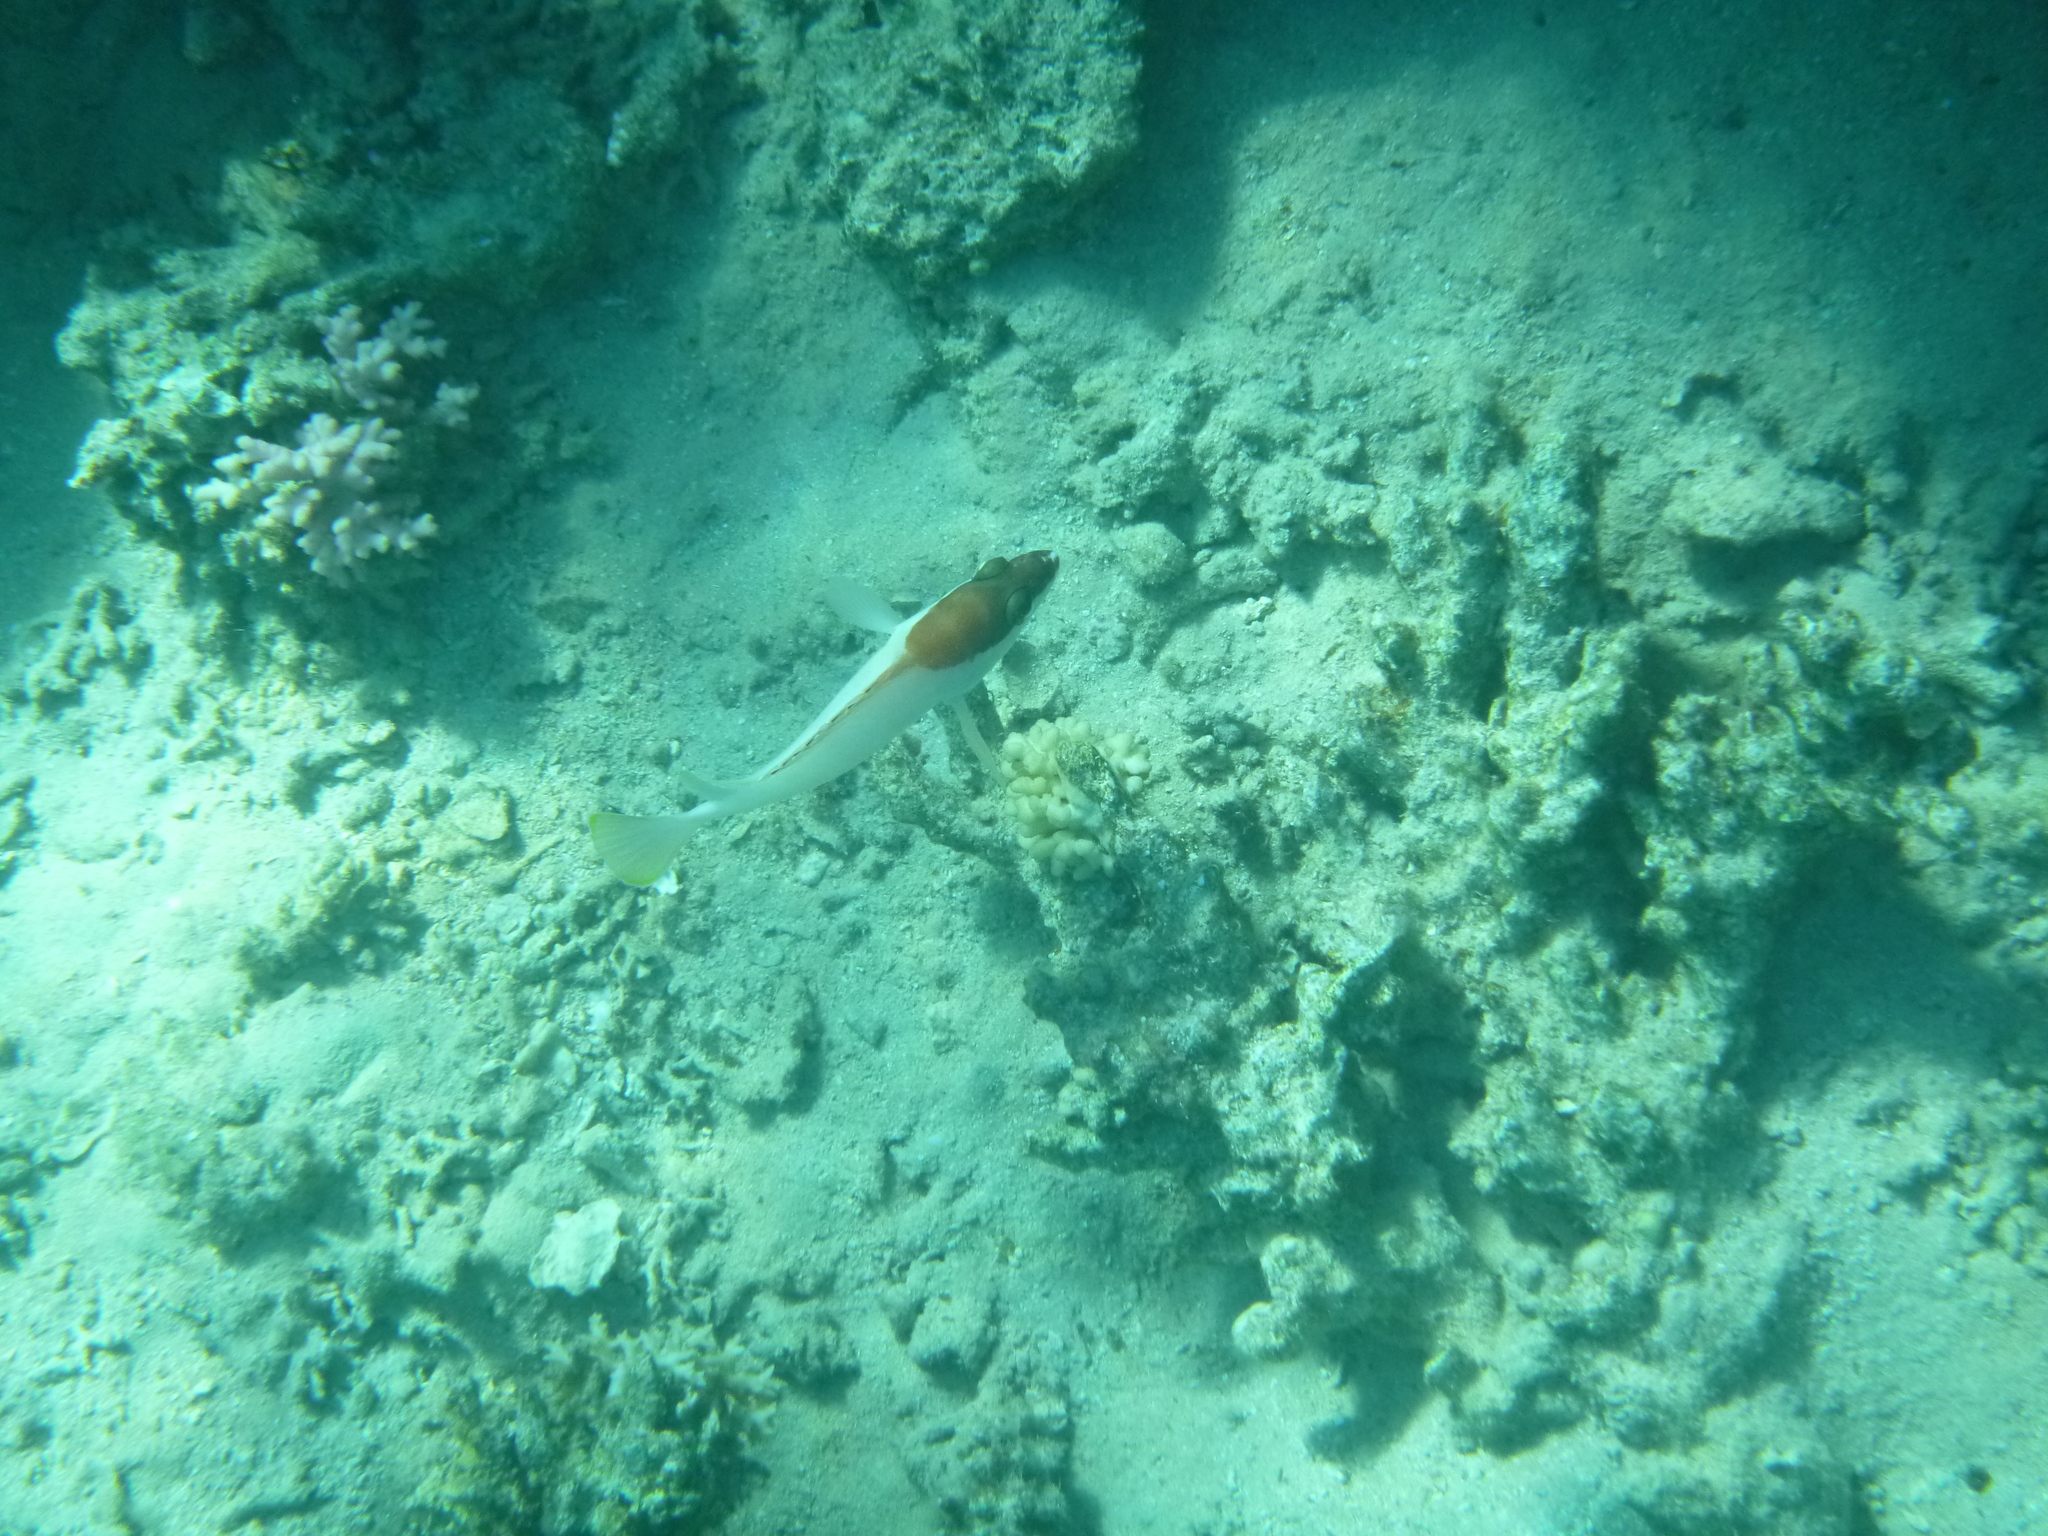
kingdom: Animalia
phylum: Chordata
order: Perciformes
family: Serranidae
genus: Epinephelus
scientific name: Epinephelus fasciatus
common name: Blacktip grouper
